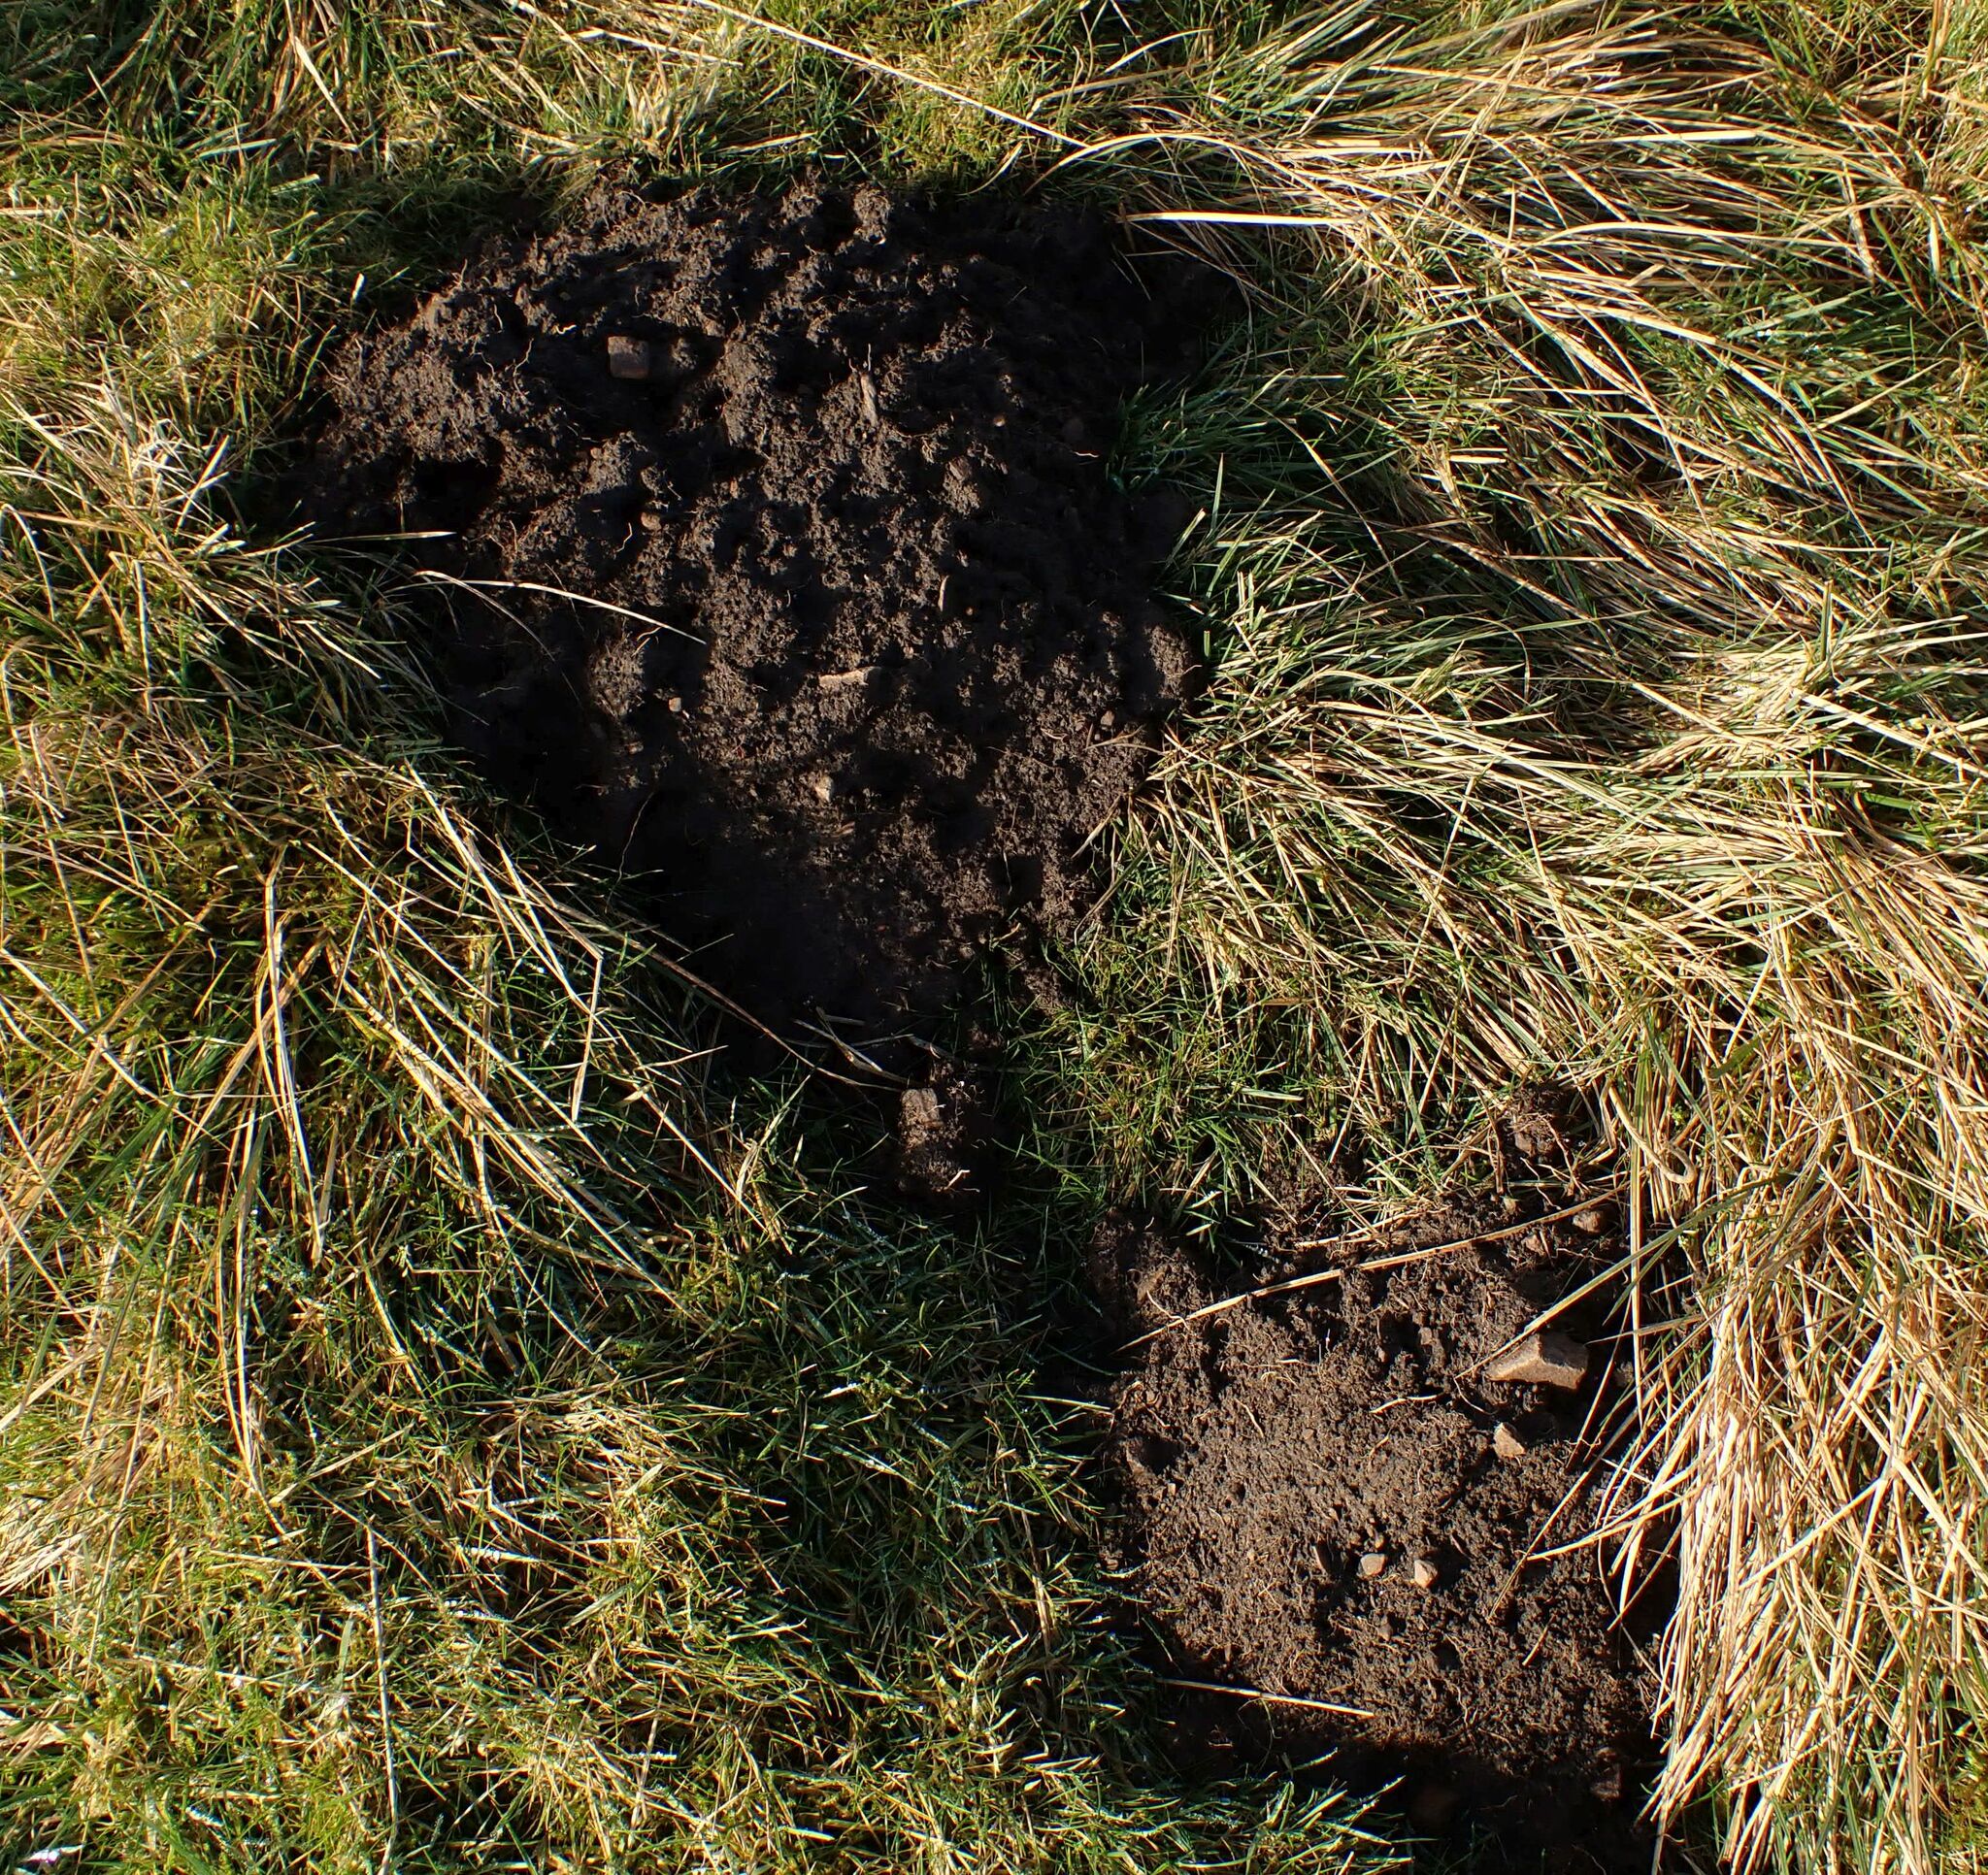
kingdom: Animalia
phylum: Chordata
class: Mammalia
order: Soricomorpha
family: Talpidae
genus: Talpa
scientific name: Talpa europaea
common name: European mole
